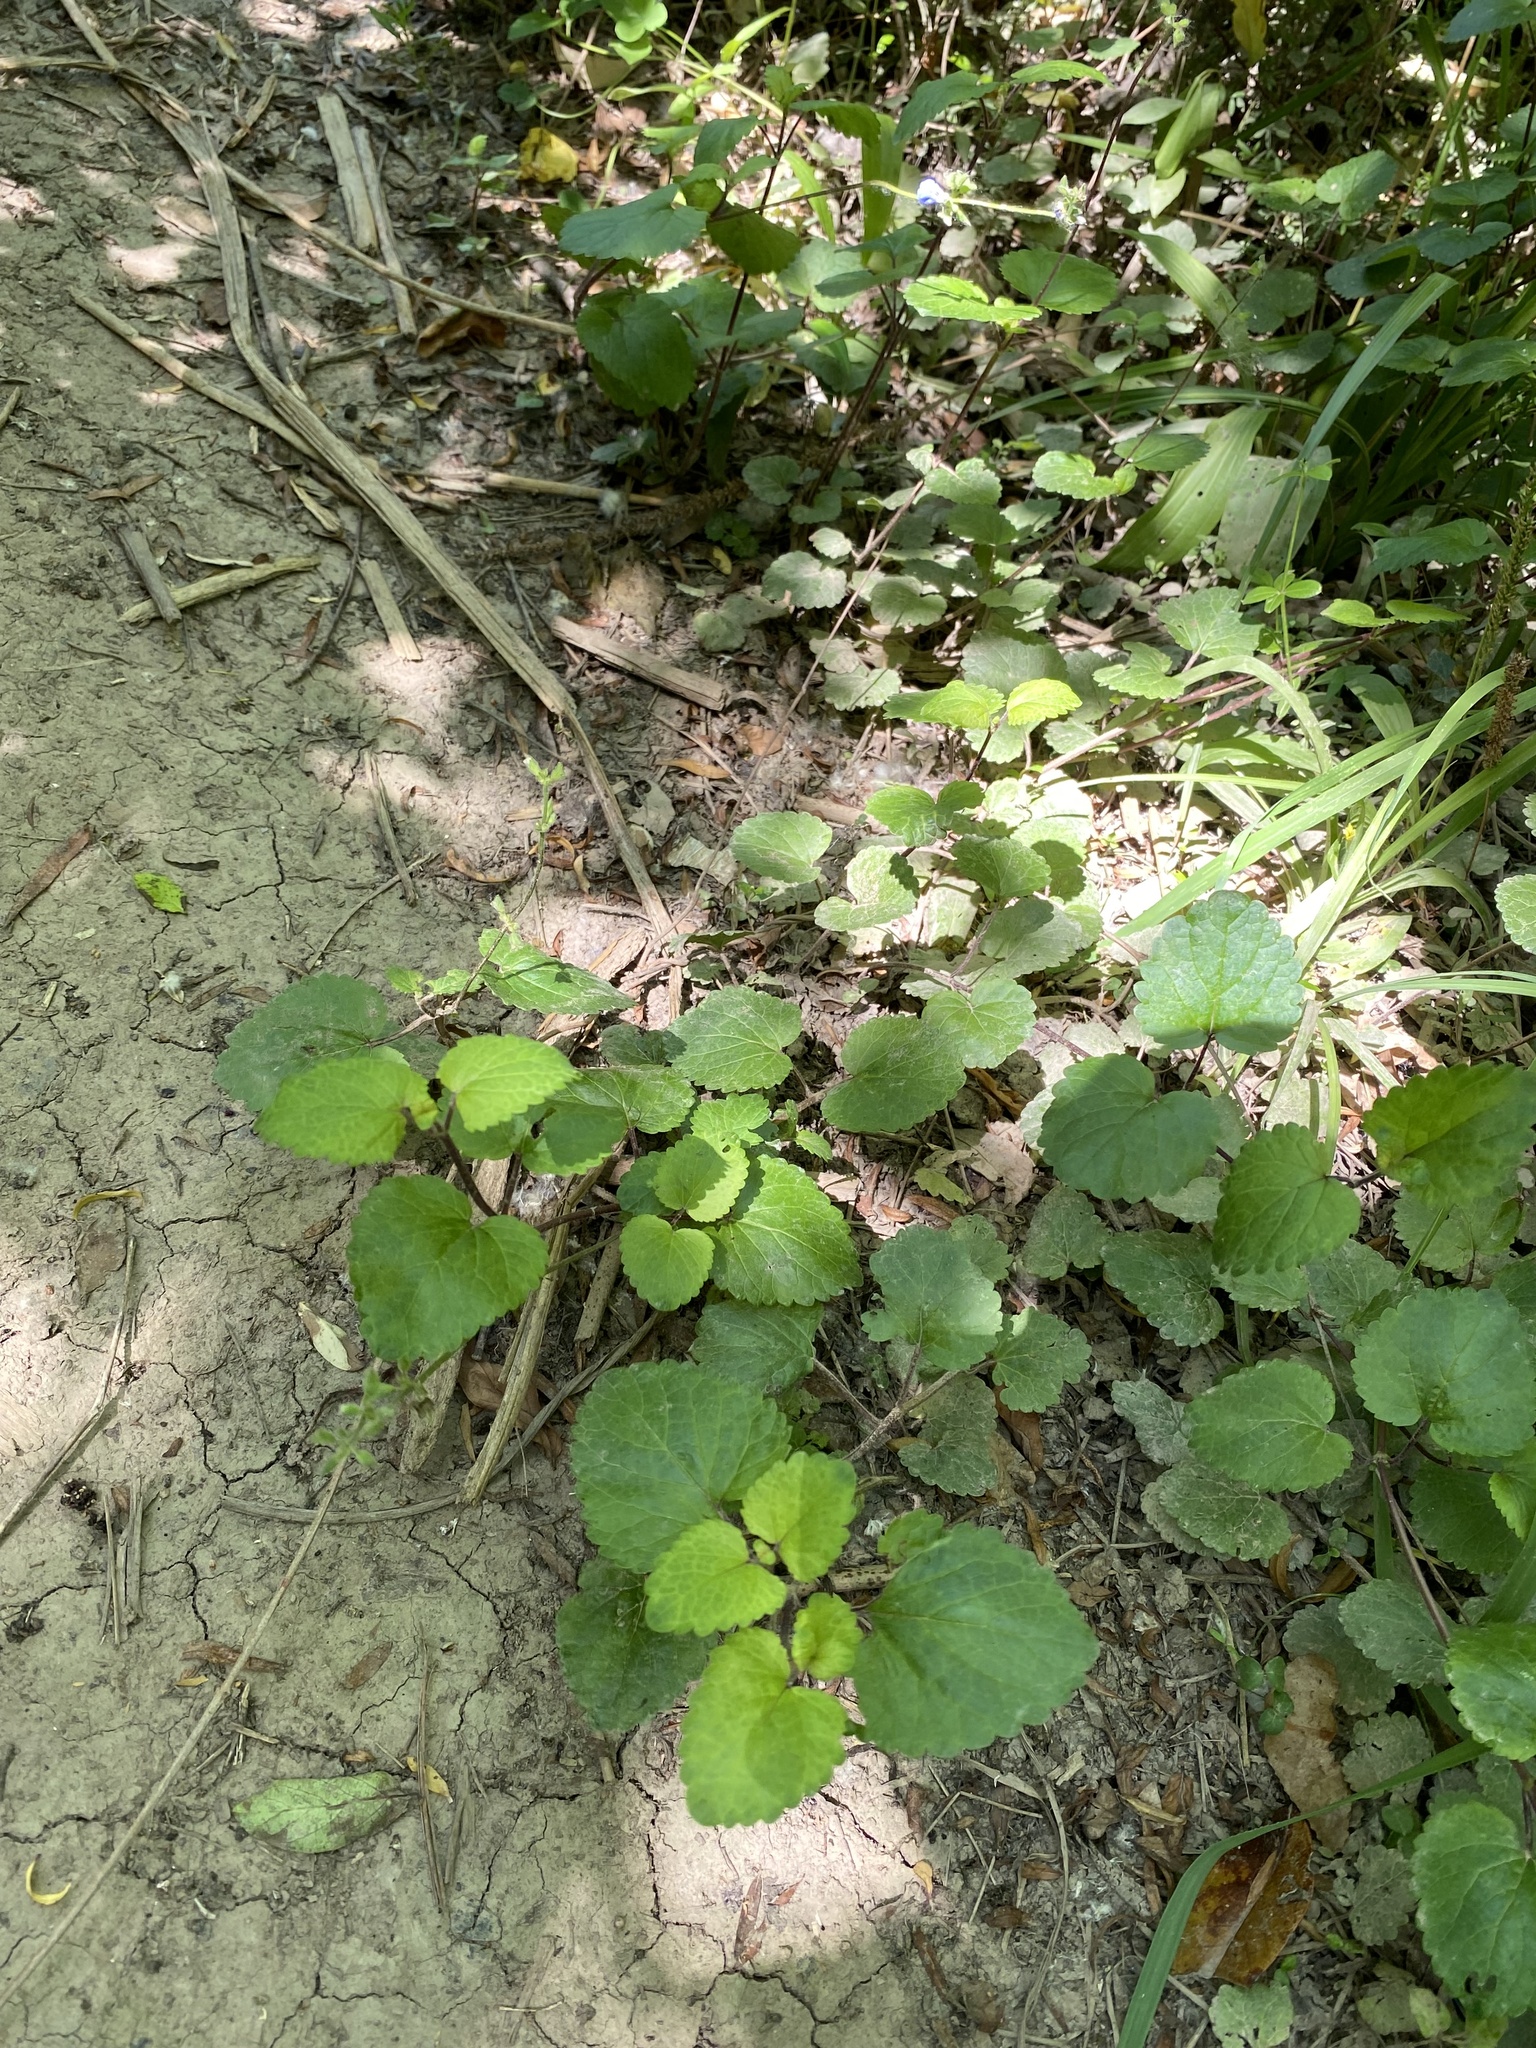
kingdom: Plantae
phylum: Tracheophyta
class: Magnoliopsida
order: Lamiales
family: Lamiaceae
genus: Salvia
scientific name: Salvia procurrens
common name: Blue creeper
